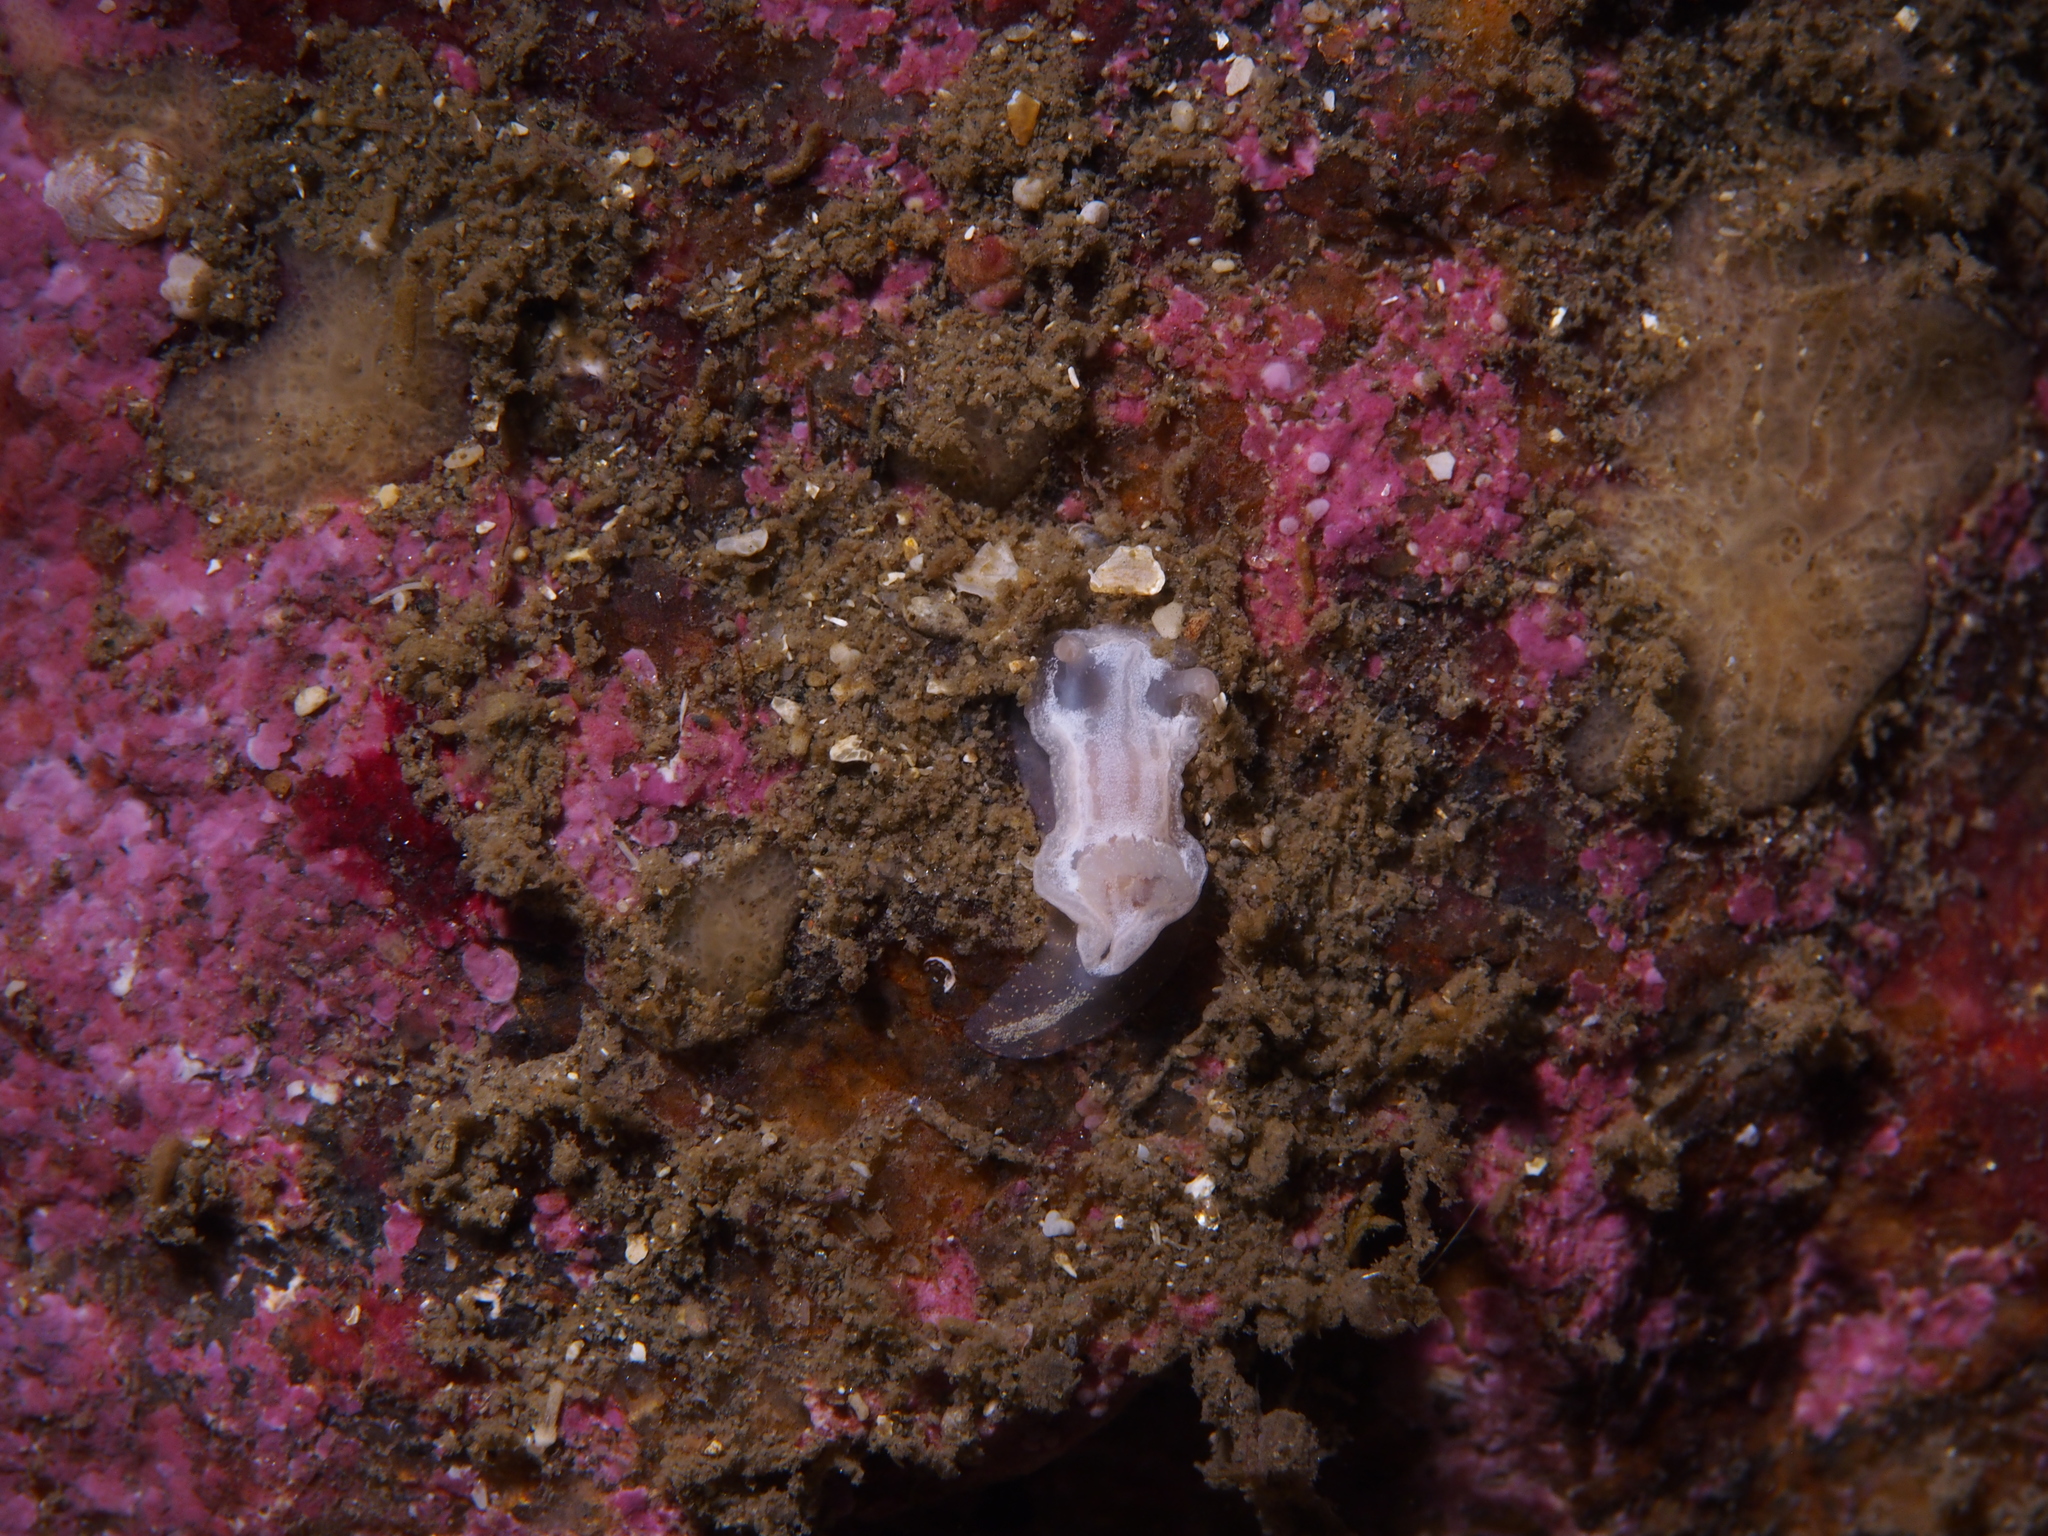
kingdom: Animalia
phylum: Mollusca
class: Gastropoda
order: Nudibranchia
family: Goniodorididae
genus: Okenia
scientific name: Okenia
